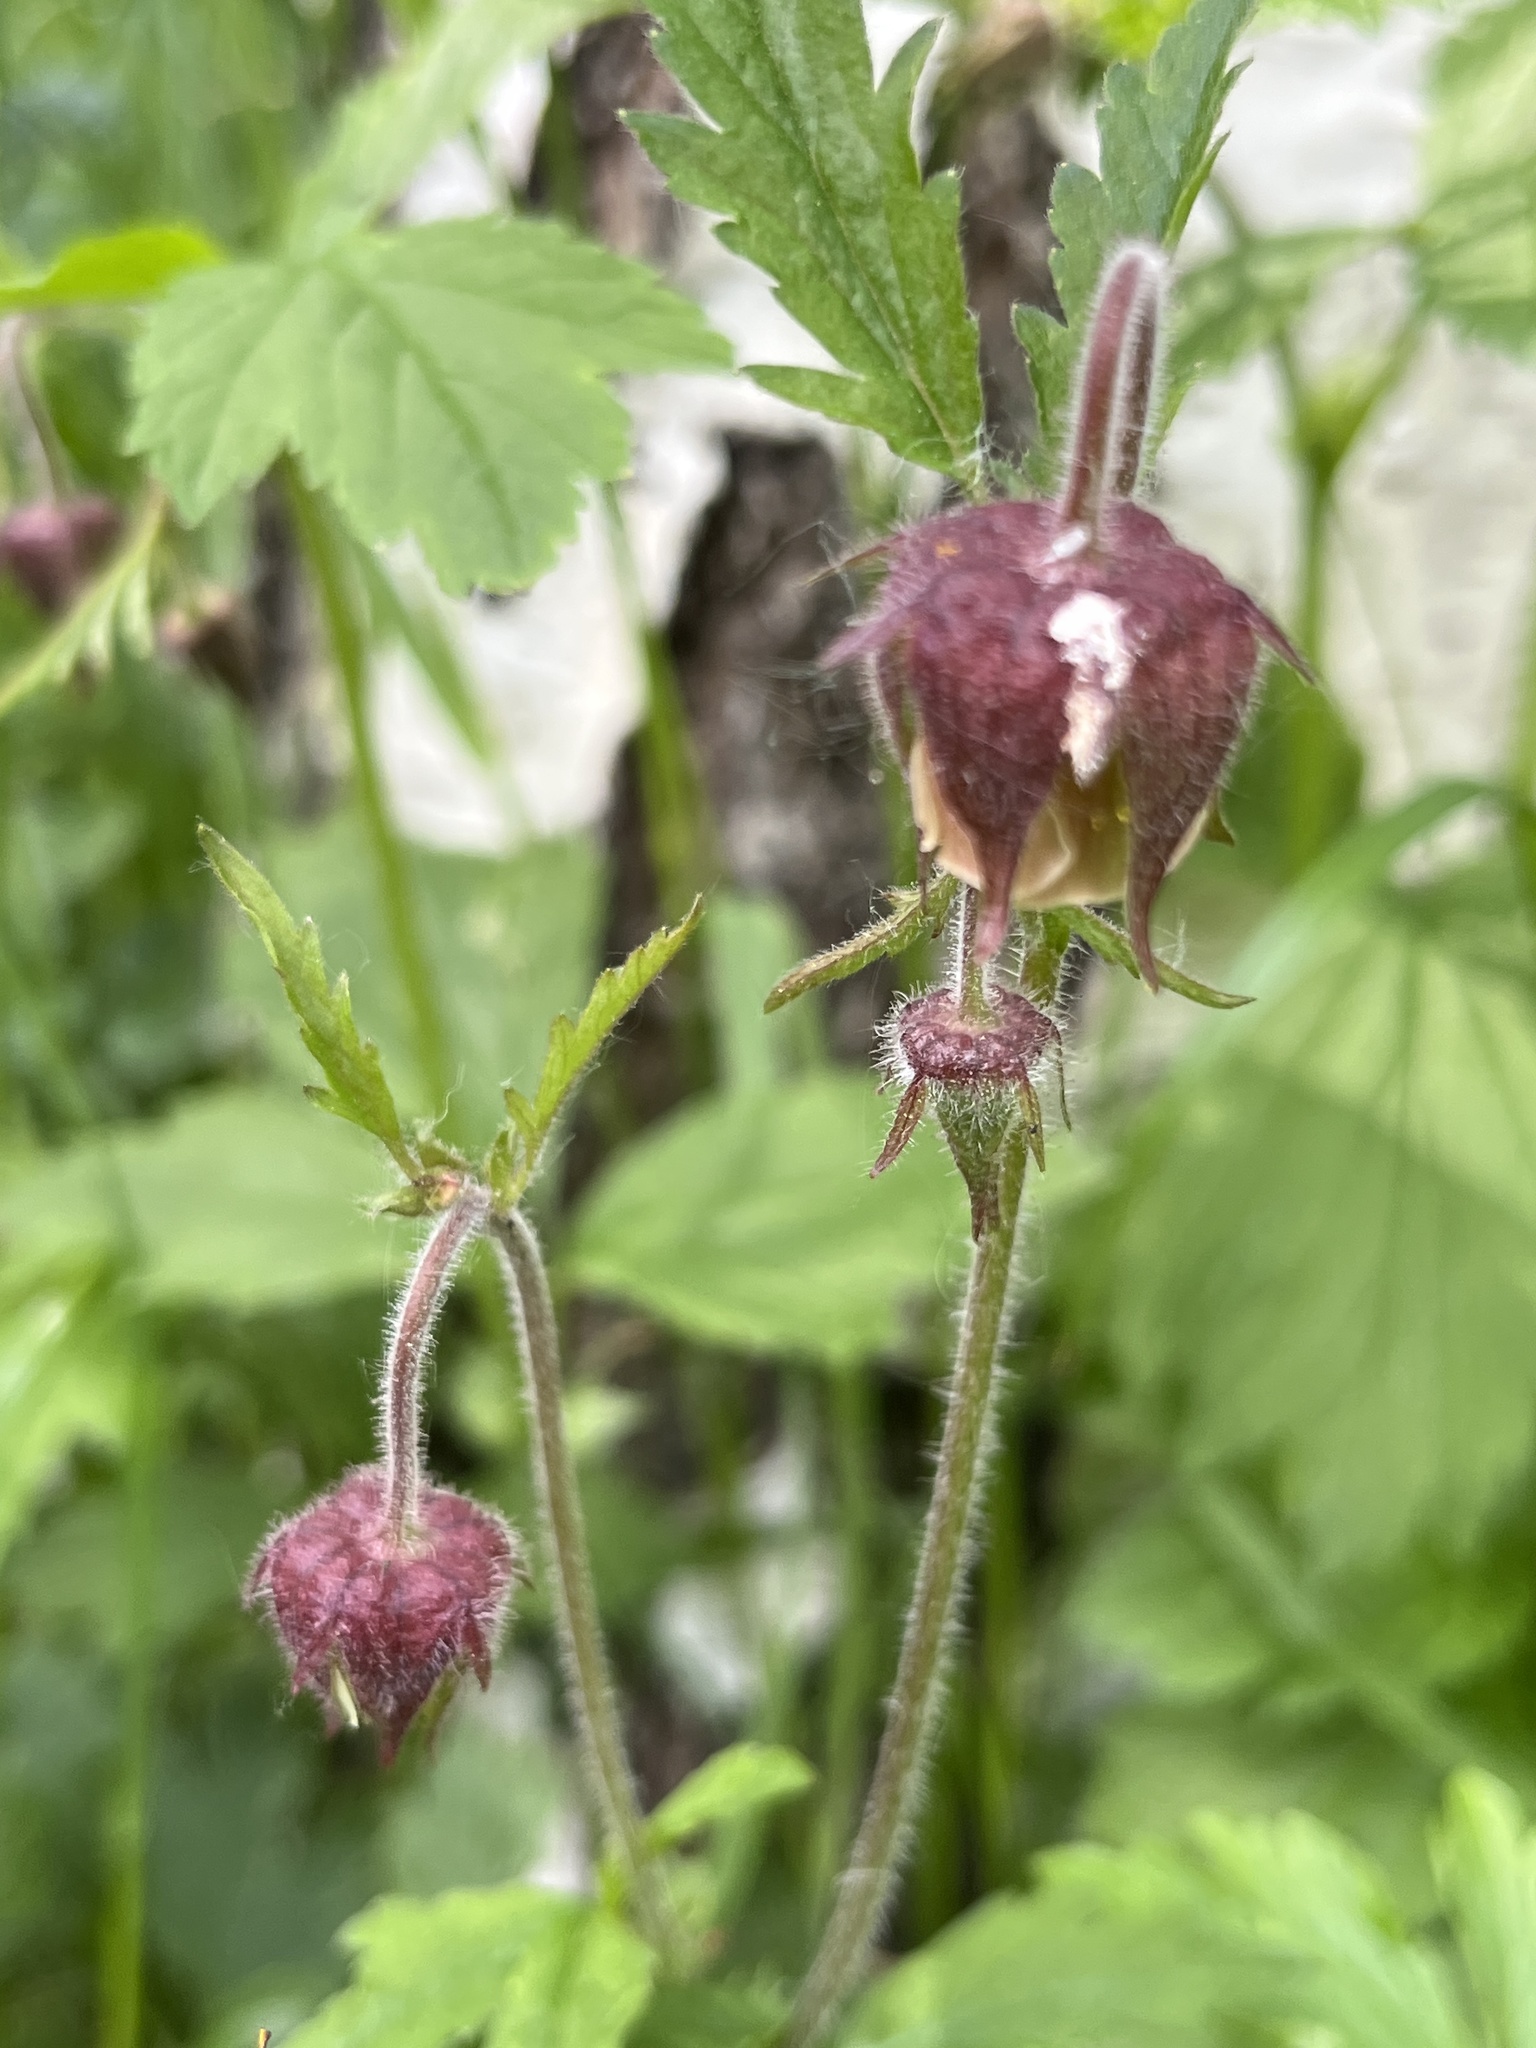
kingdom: Plantae
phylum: Tracheophyta
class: Magnoliopsida
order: Rosales
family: Rosaceae
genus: Geum
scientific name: Geum rivale
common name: Water avens
